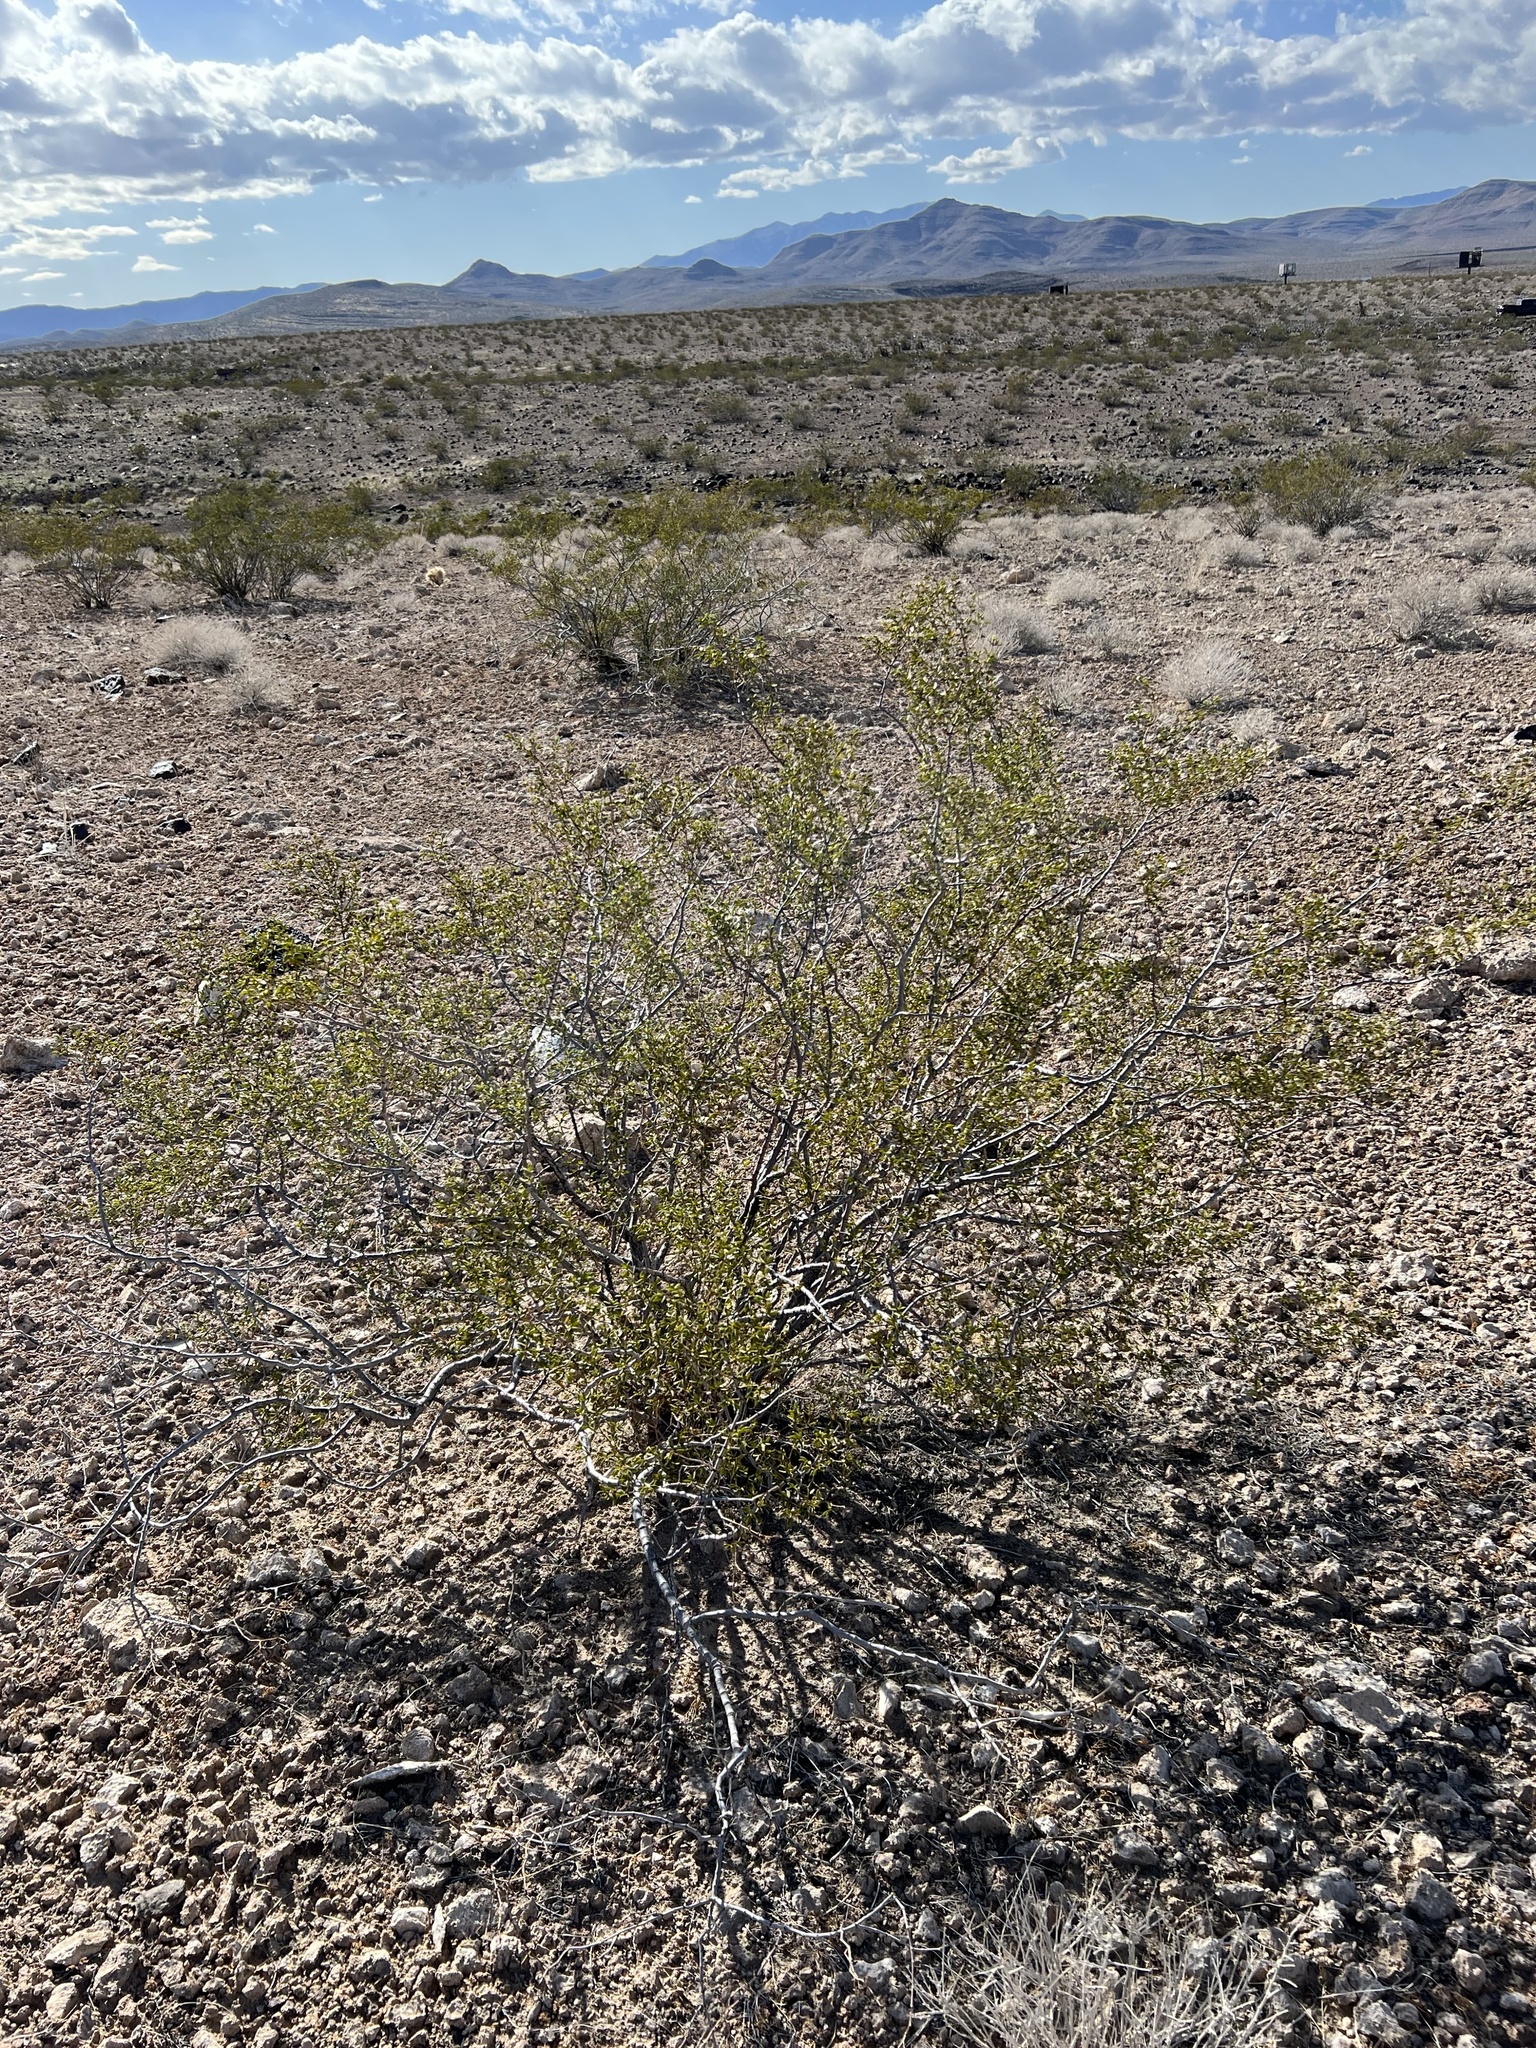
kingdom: Plantae
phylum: Tracheophyta
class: Magnoliopsida
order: Zygophyllales
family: Zygophyllaceae
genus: Larrea
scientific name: Larrea tridentata
